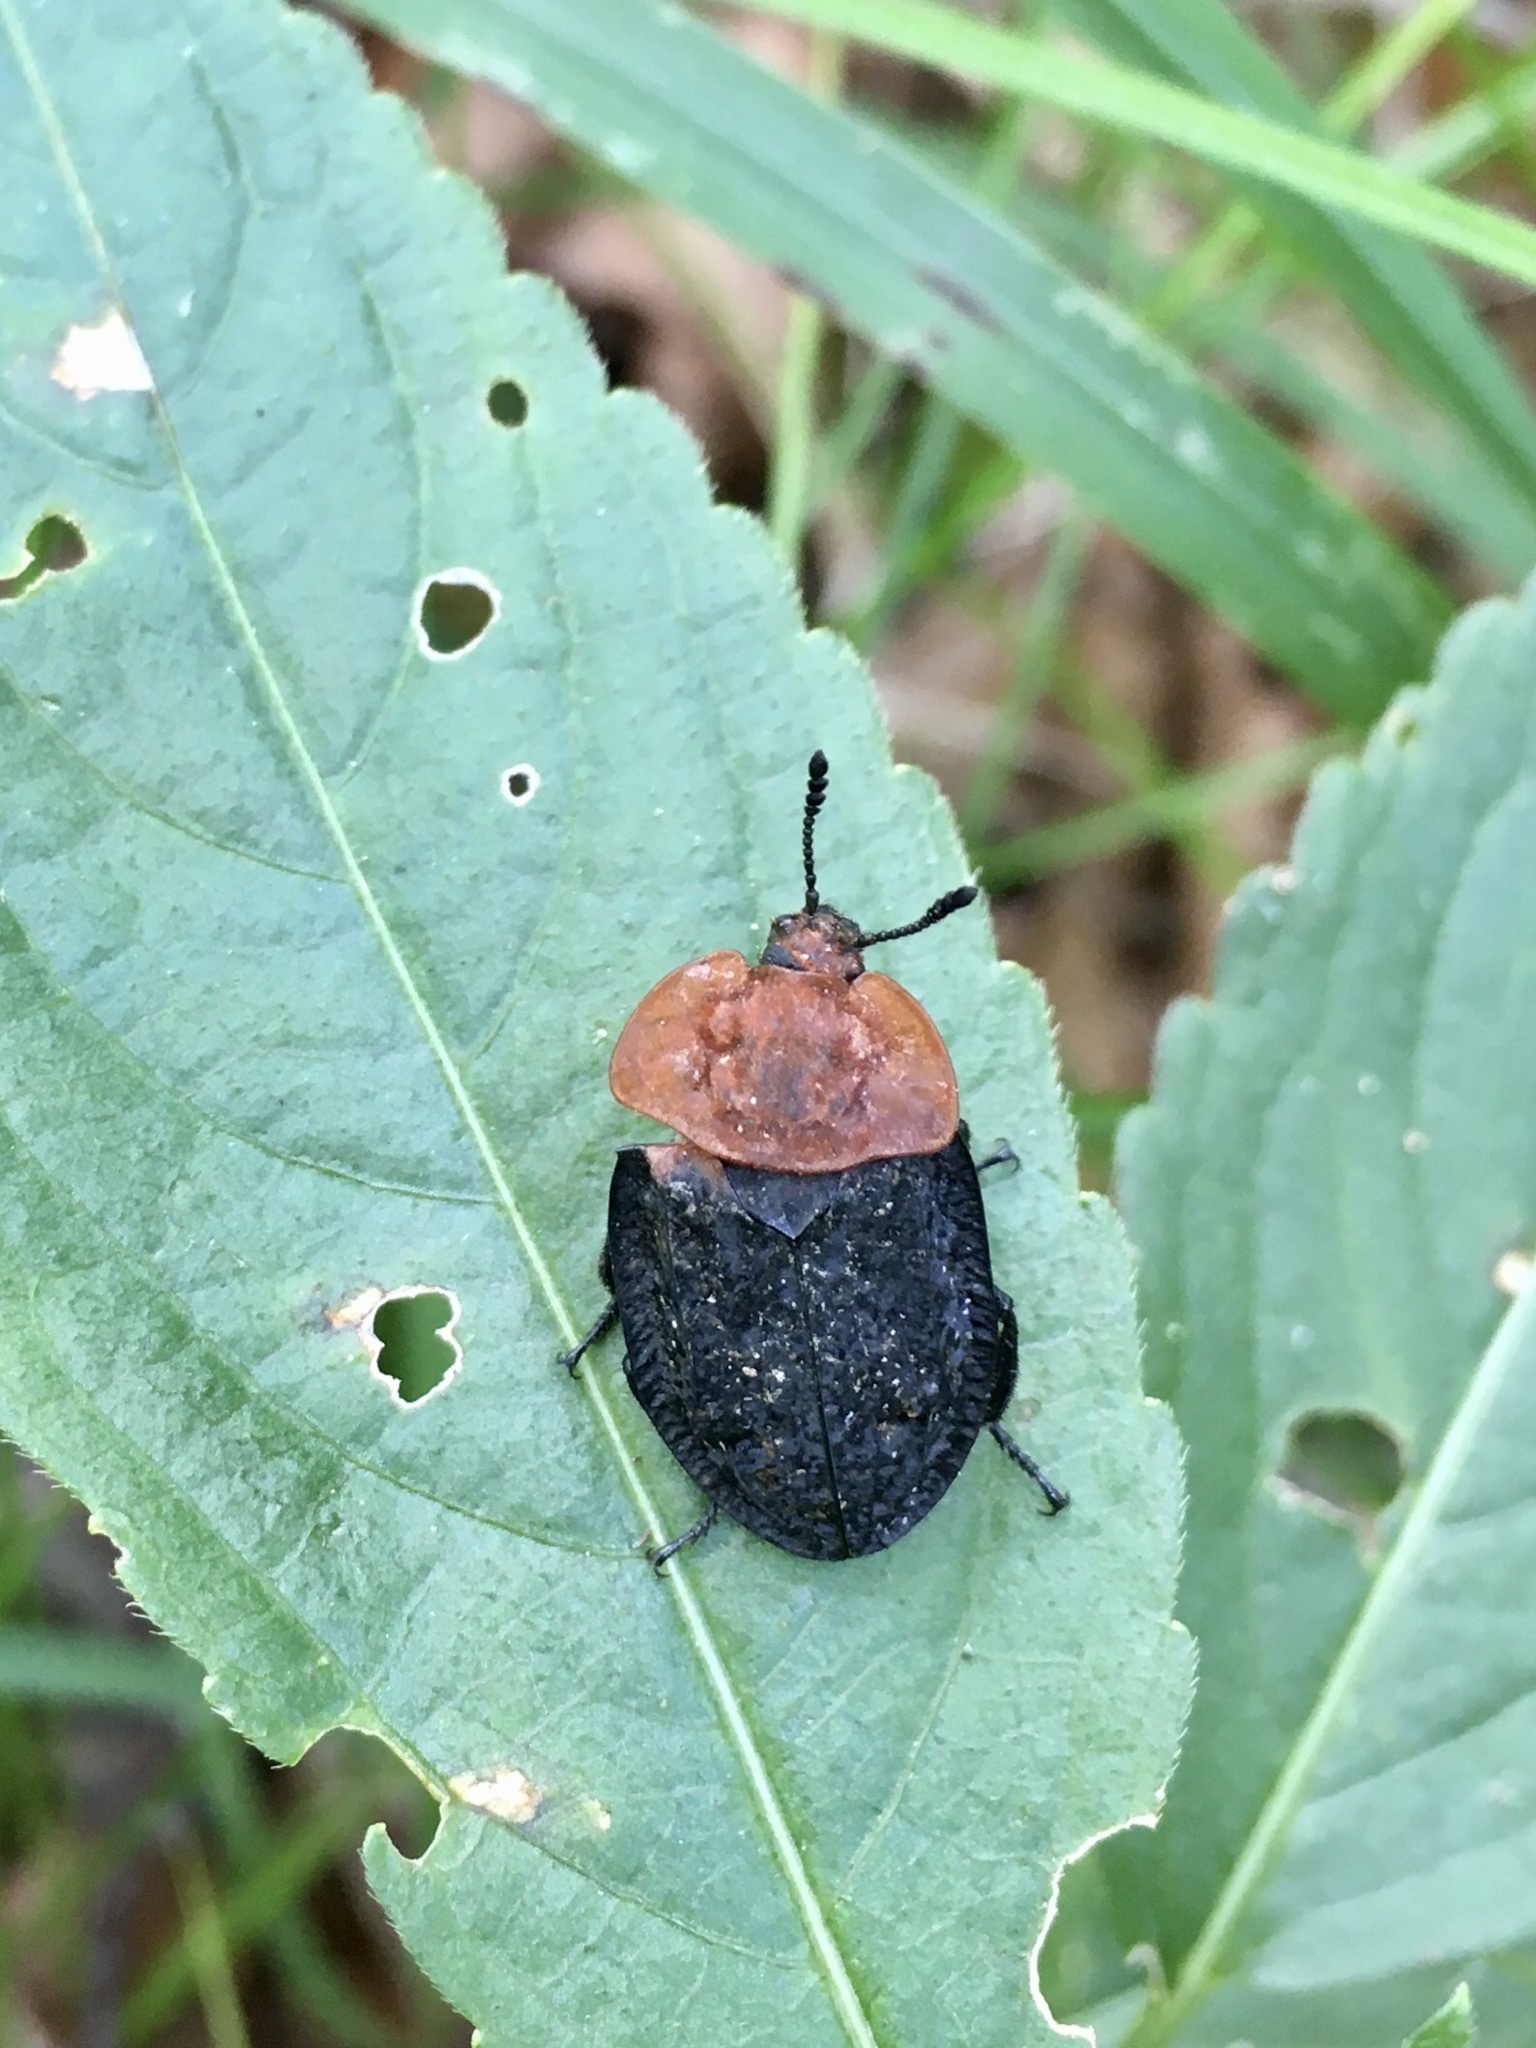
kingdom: Animalia
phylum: Arthropoda
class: Insecta
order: Coleoptera
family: Staphylinidae
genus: Oiceoptoma
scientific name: Oiceoptoma thoracicum
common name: Red-breasted carrion beetle
